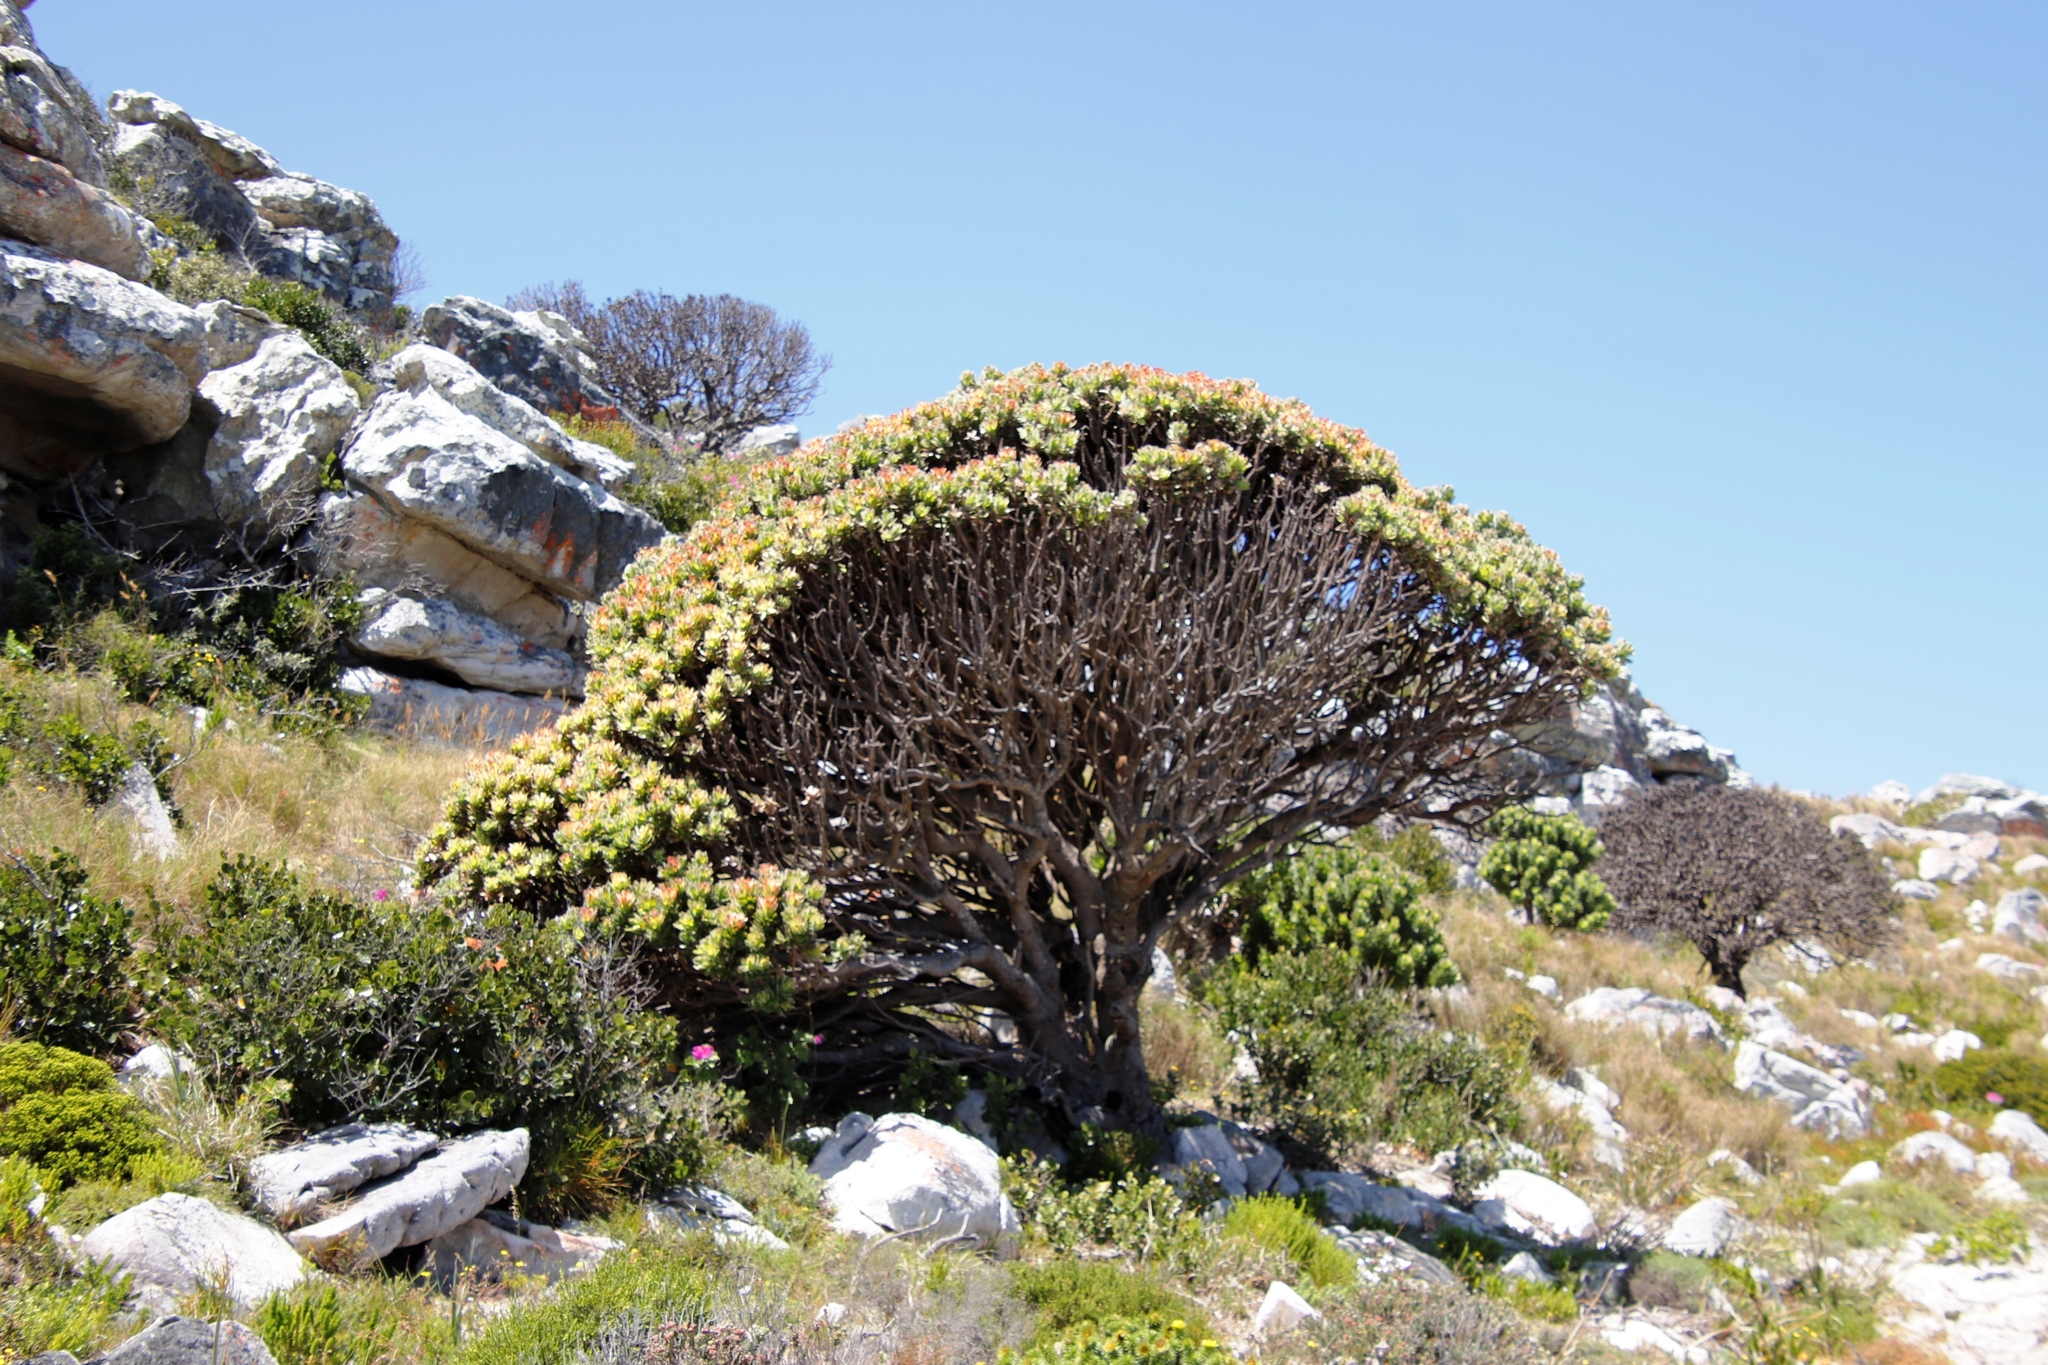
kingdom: Plantae
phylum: Tracheophyta
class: Magnoliopsida
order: Proteales
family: Proteaceae
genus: Mimetes
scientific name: Mimetes fimbriifolius
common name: Fringed bottlebrush
